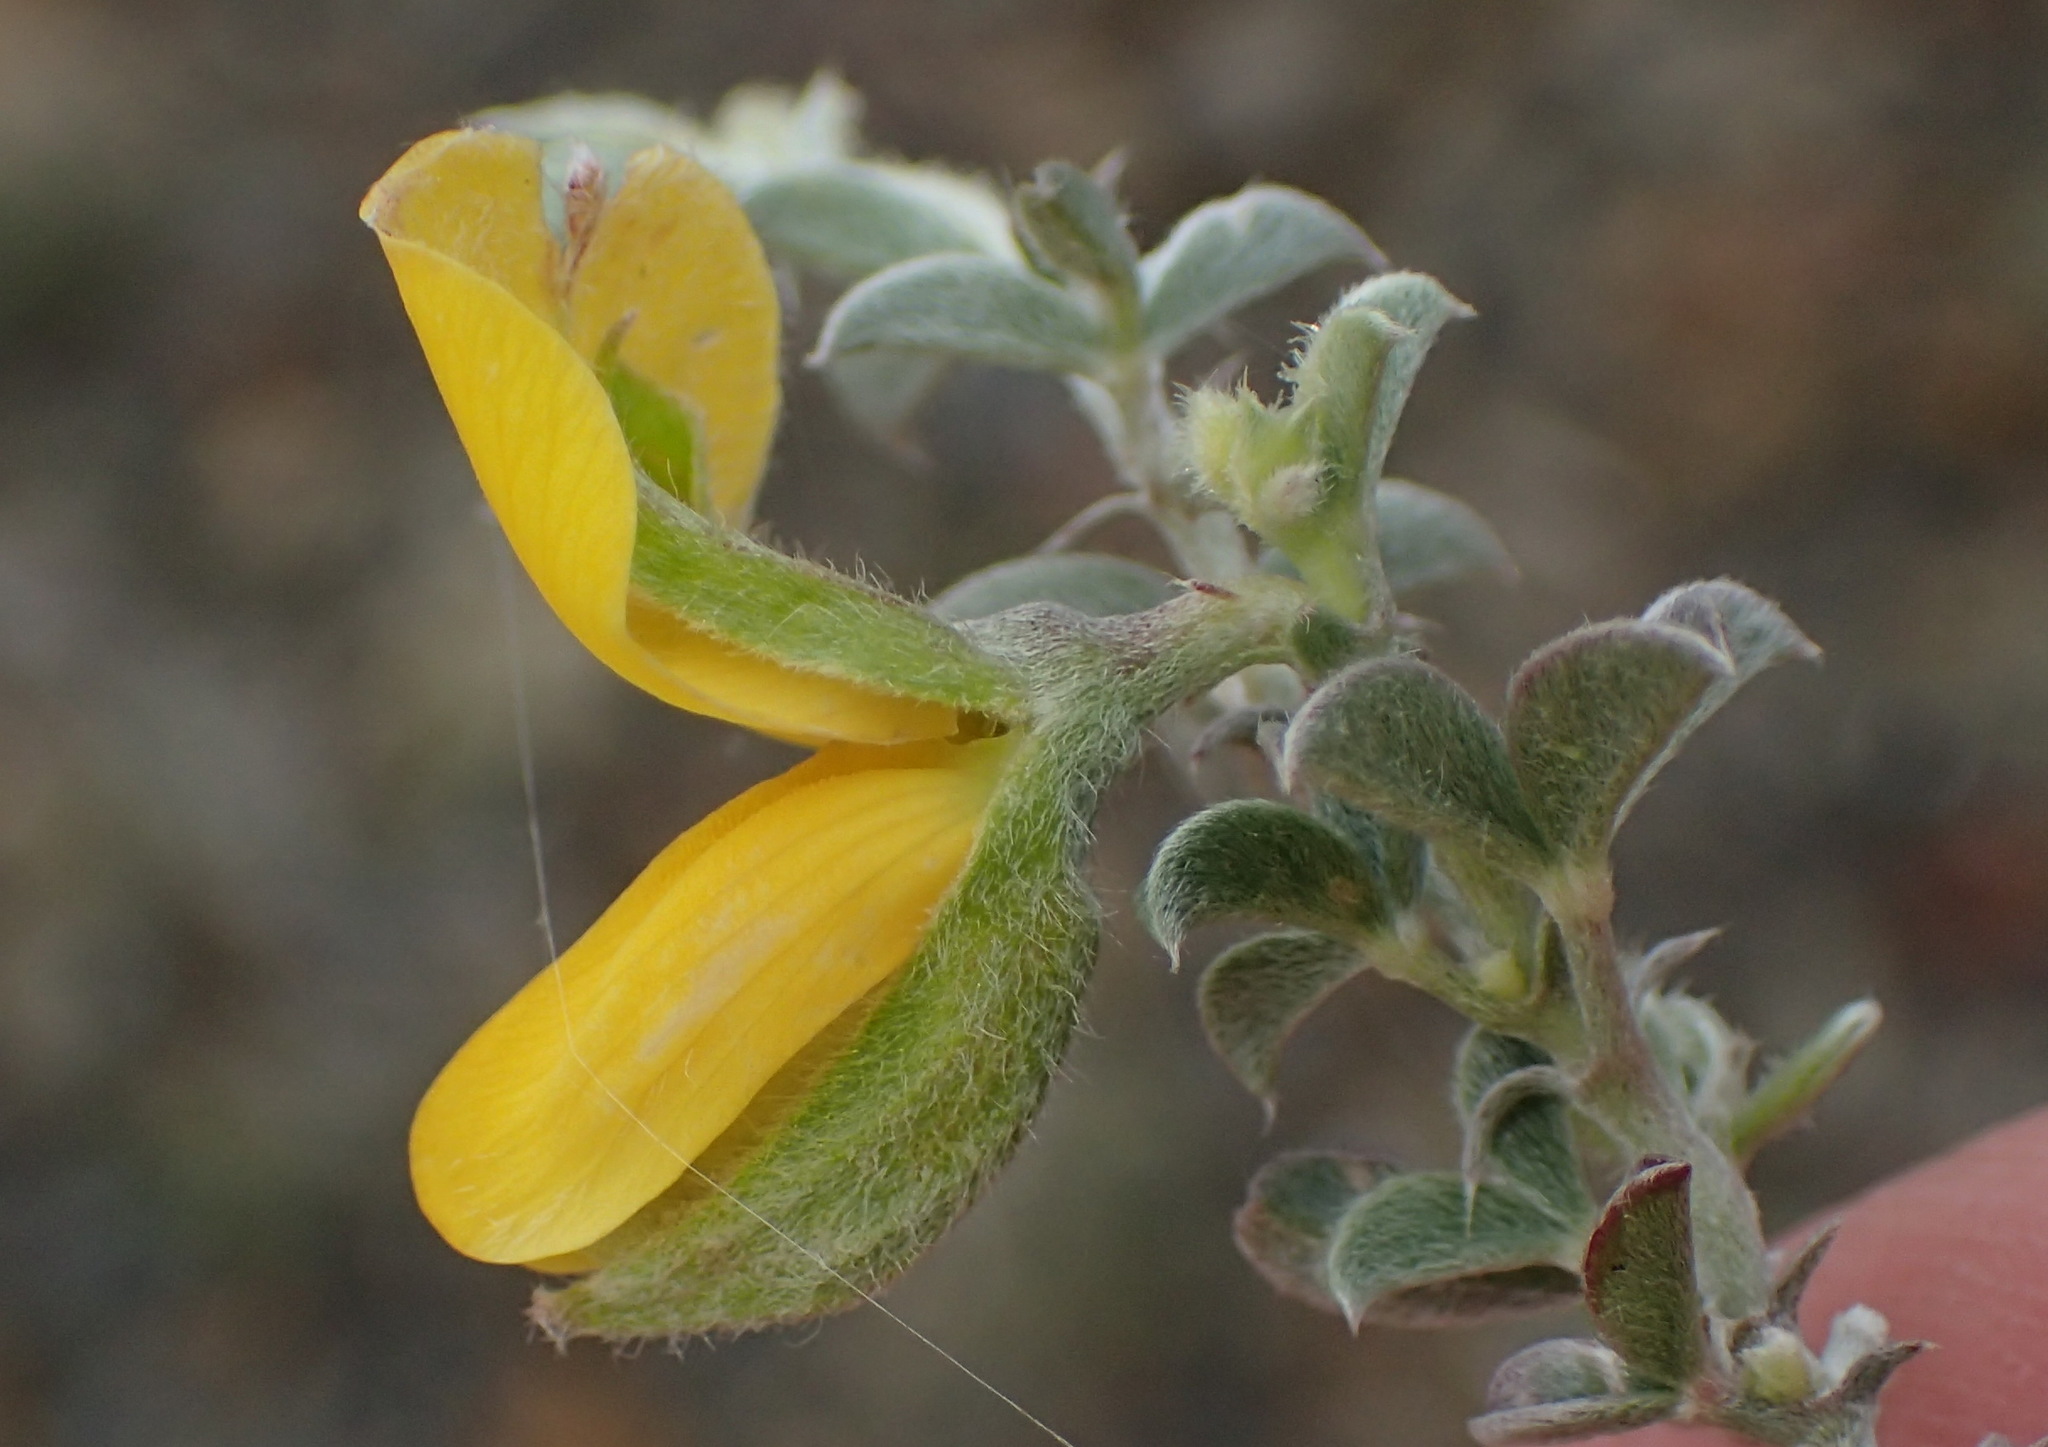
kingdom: Plantae
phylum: Tracheophyta
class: Magnoliopsida
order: Fabales
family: Fabaceae
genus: Argyrolobium
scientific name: Argyrolobium argenteum
